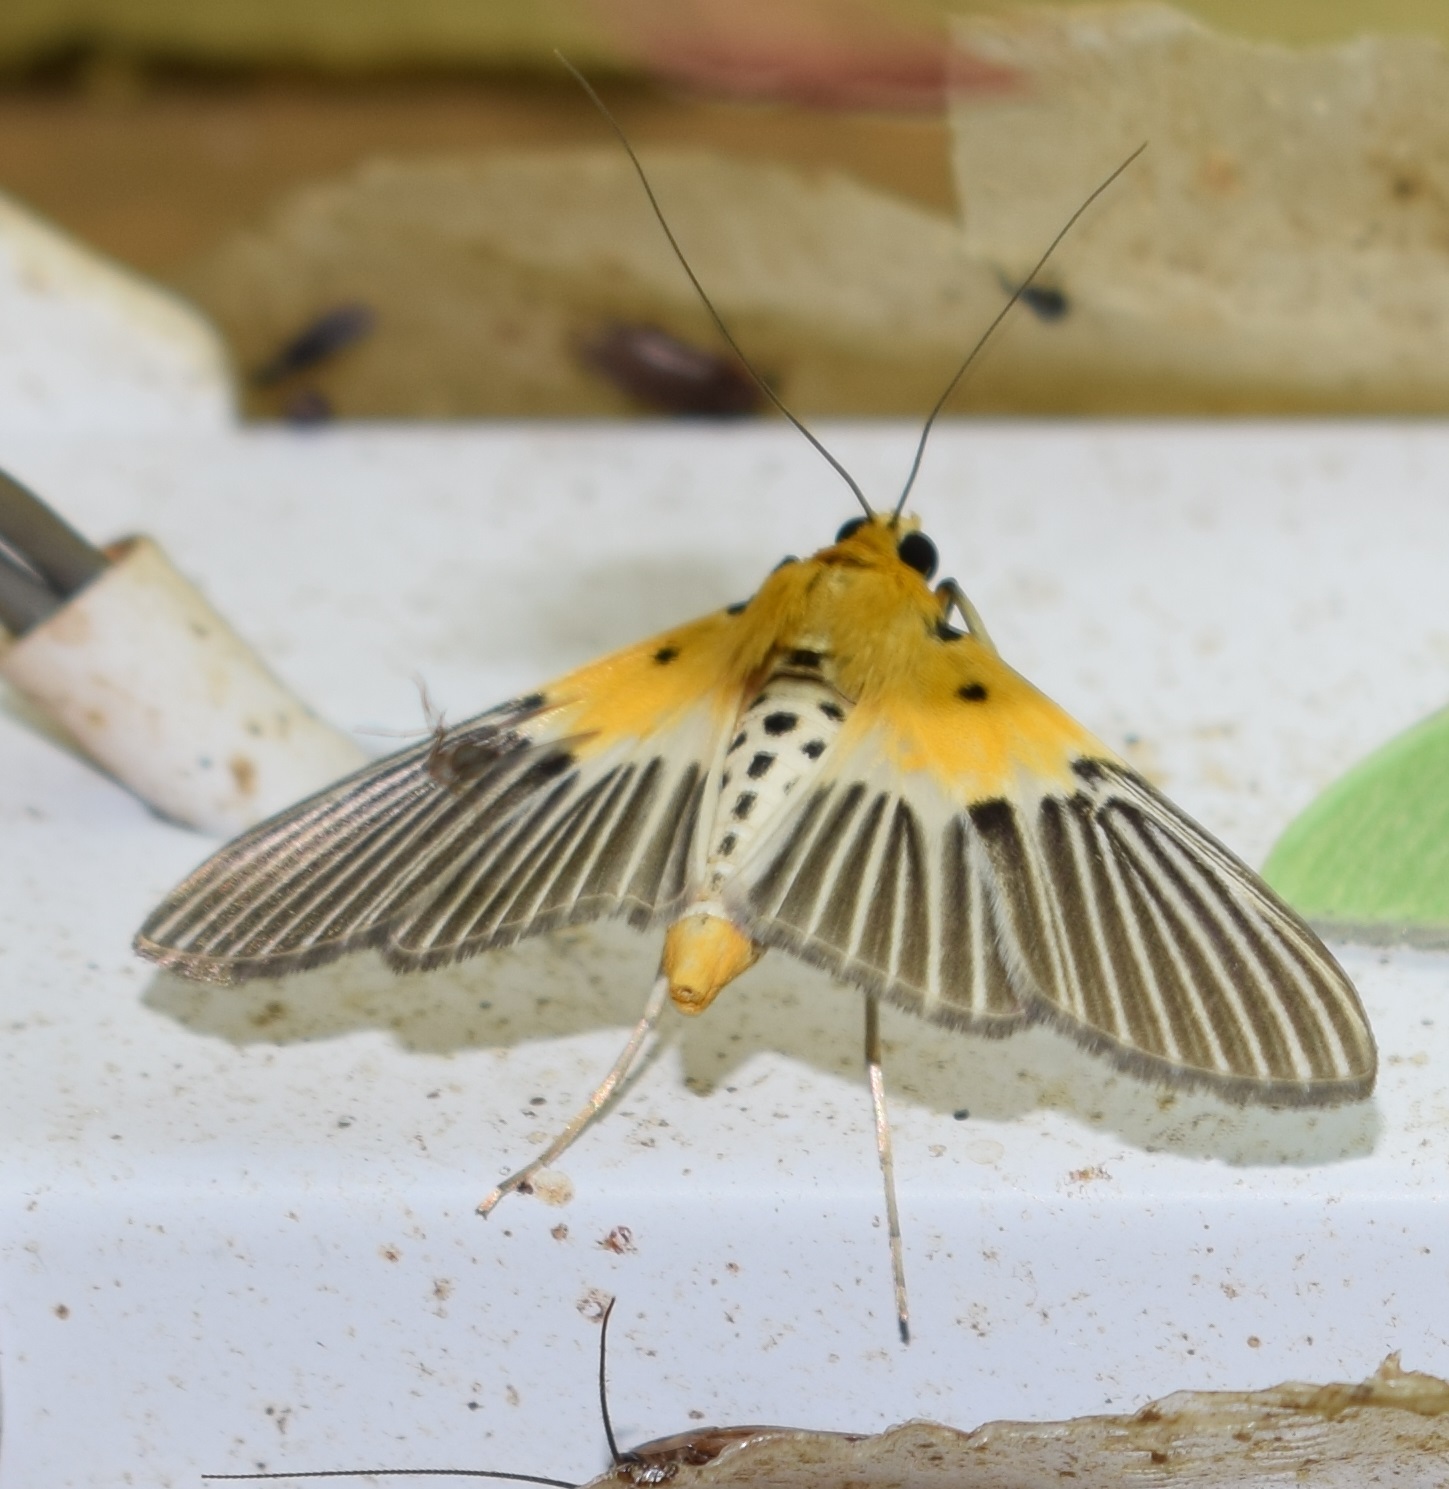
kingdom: Animalia
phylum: Arthropoda
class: Insecta
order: Lepidoptera
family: Crambidae
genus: Nevrina
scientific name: Nevrina procopia
